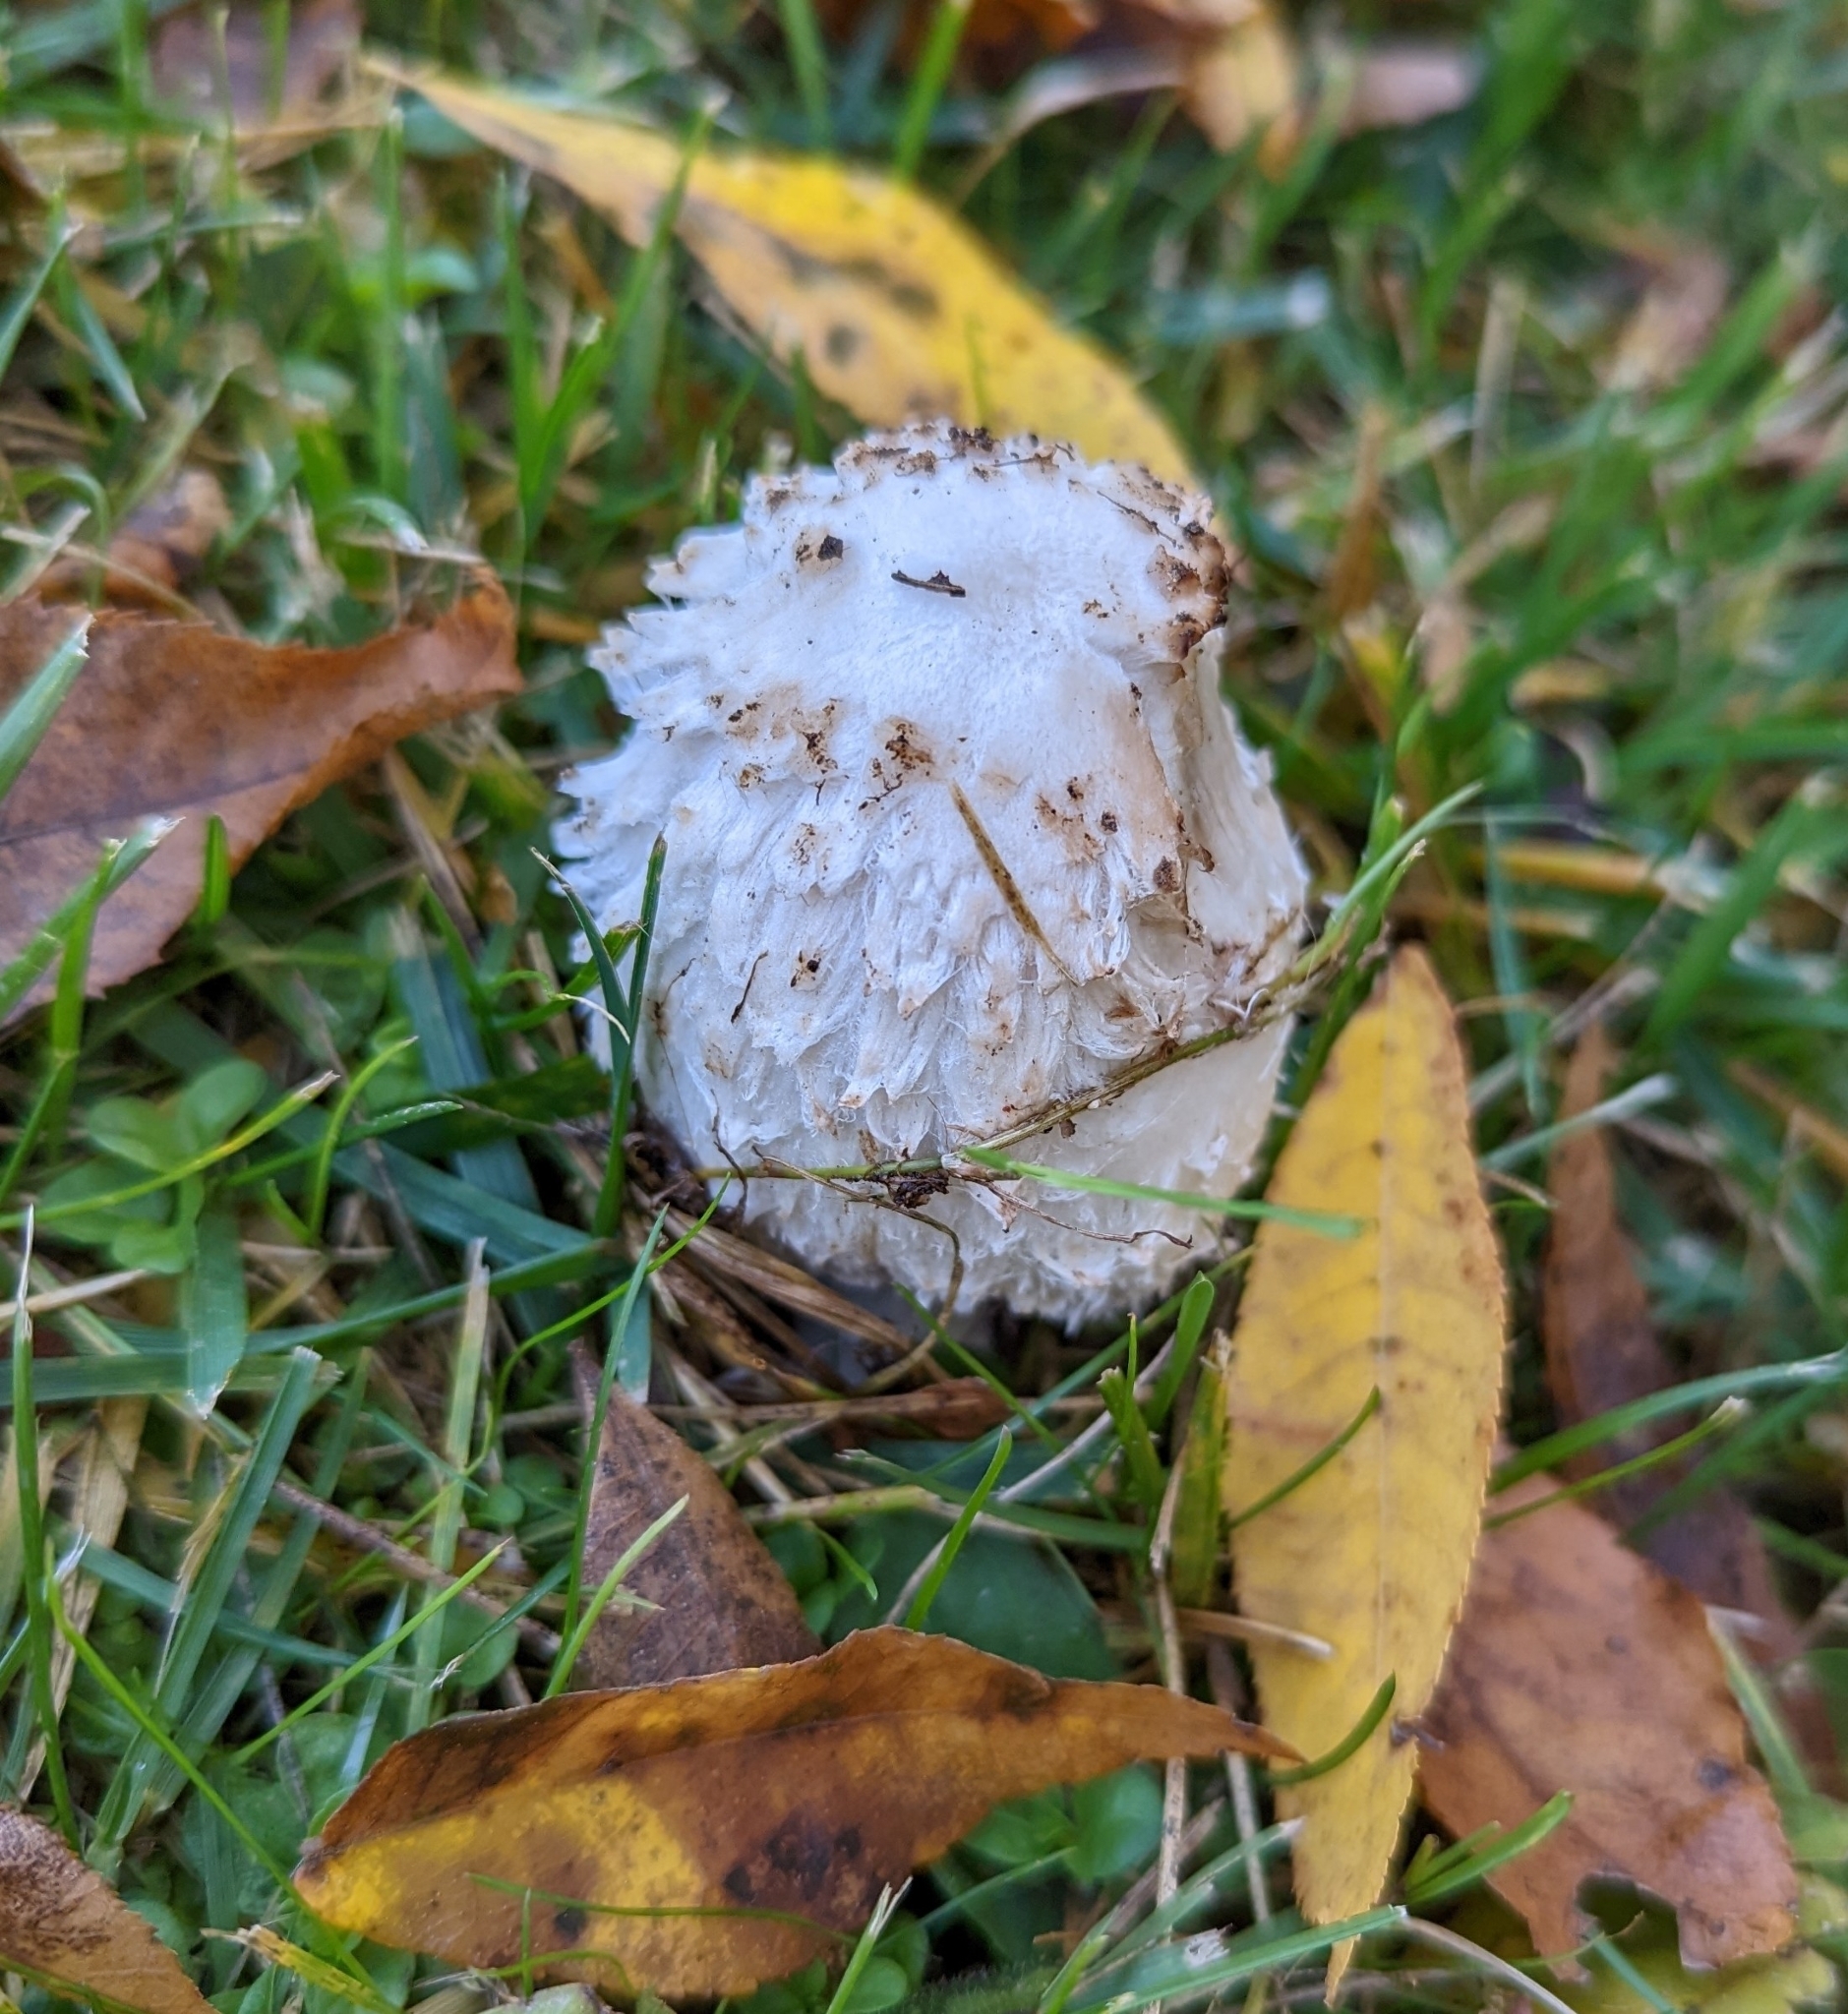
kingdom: Fungi
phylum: Basidiomycota
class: Agaricomycetes
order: Agaricales
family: Agaricaceae
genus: Coprinus
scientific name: Coprinus comatus
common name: Lawyer's wig
